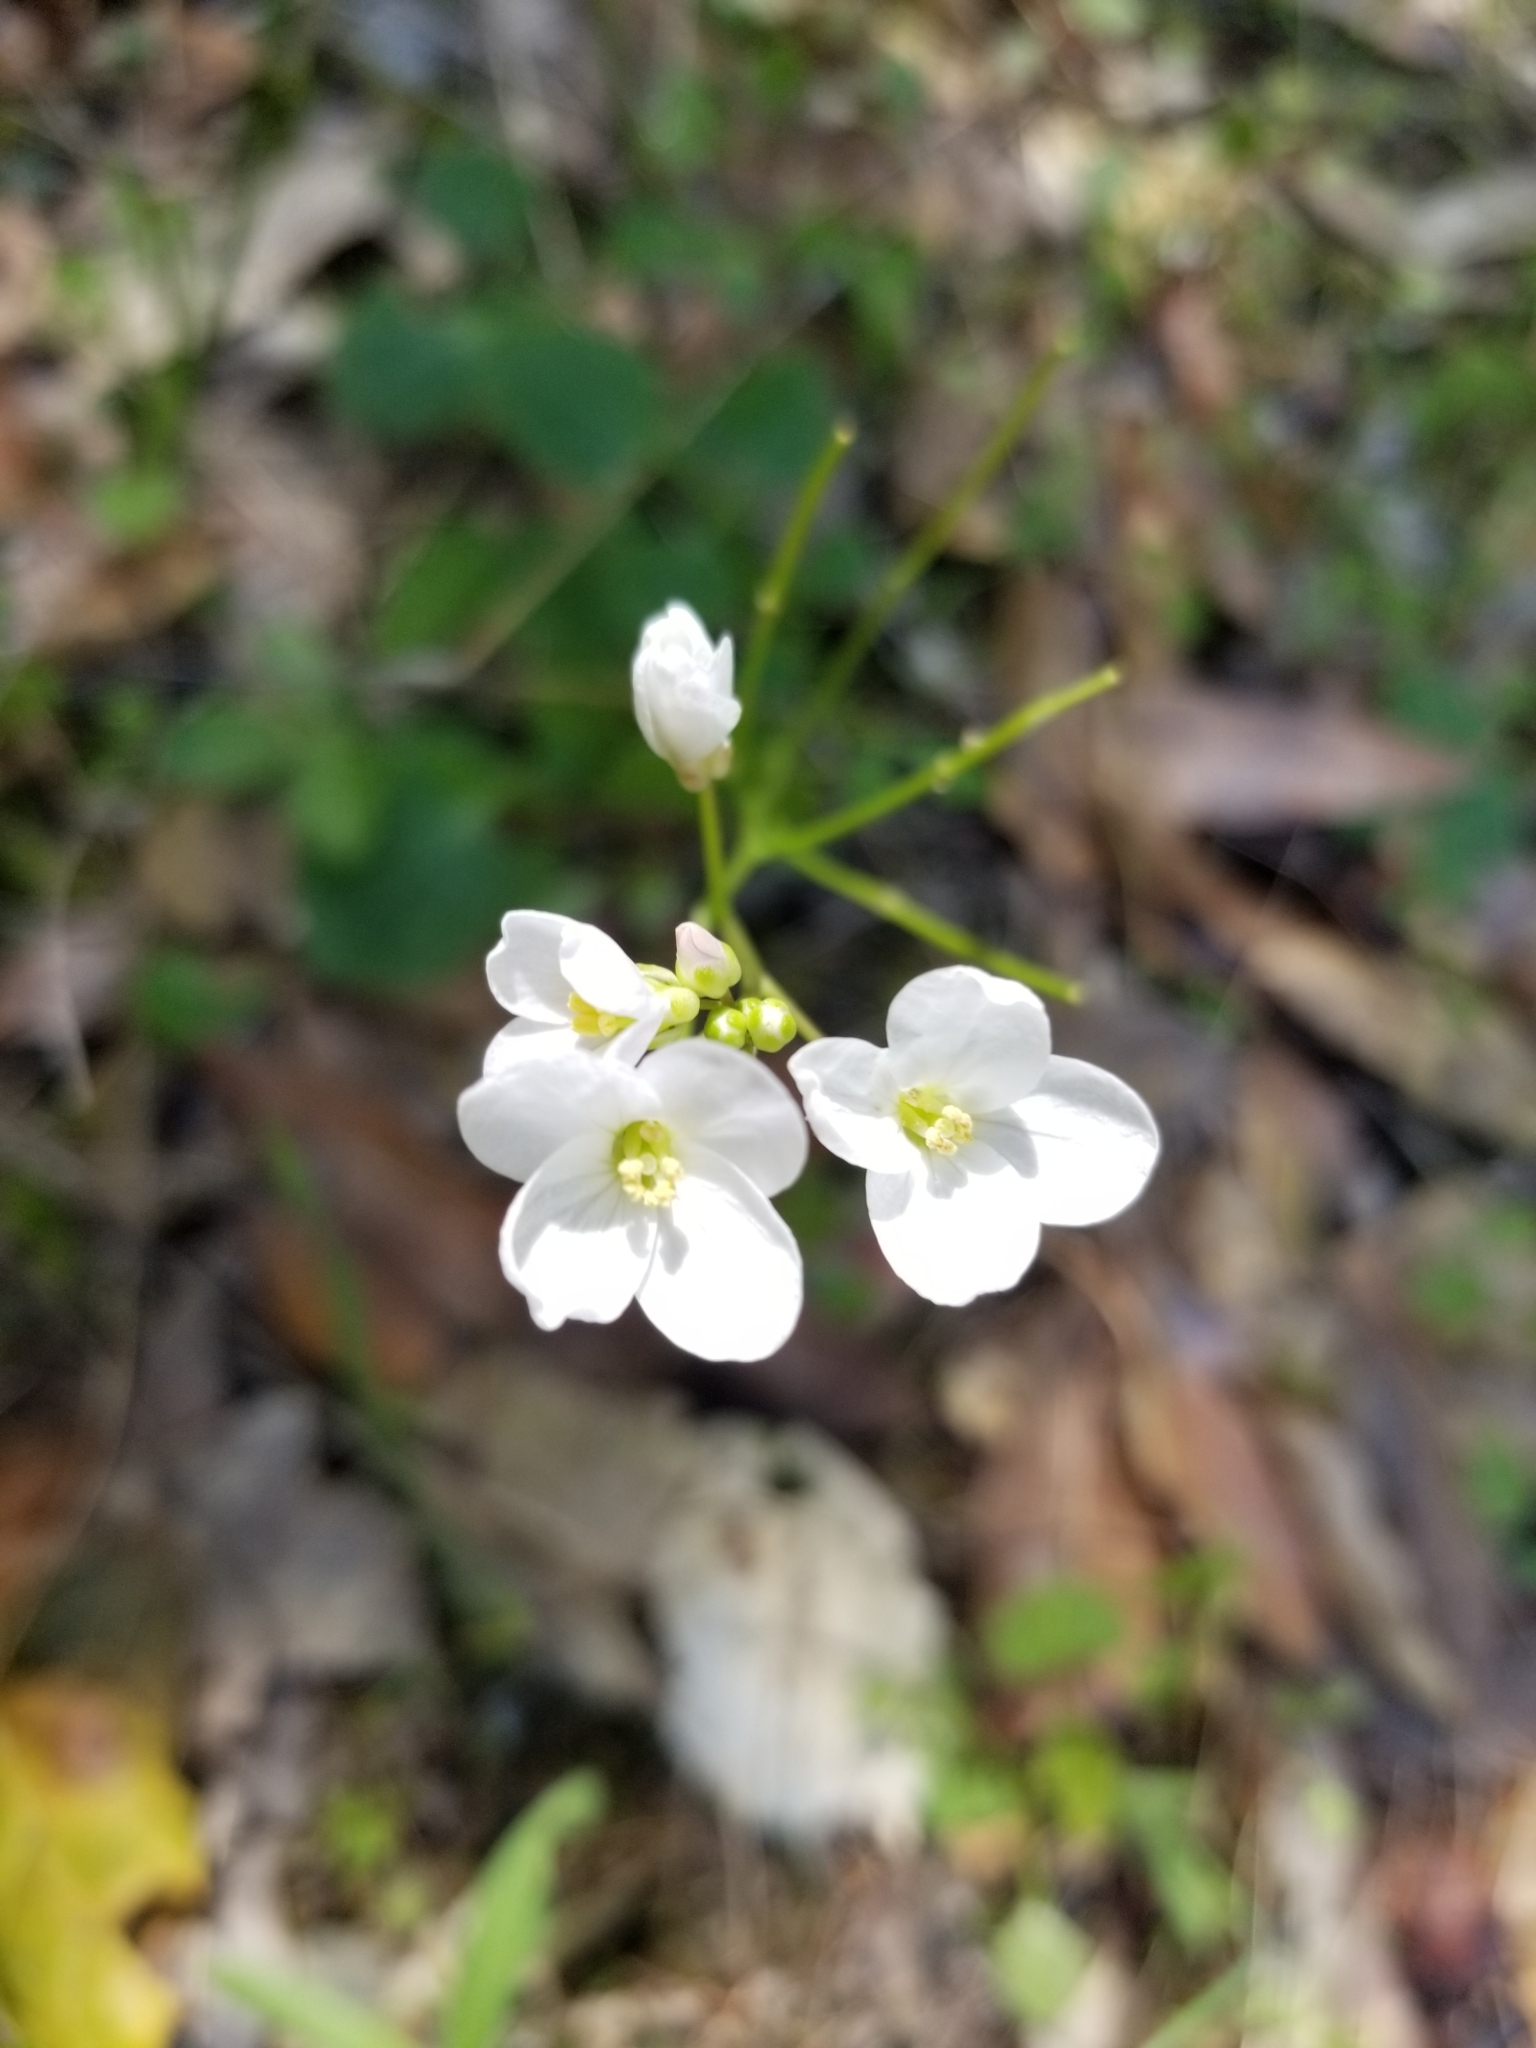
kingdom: Plantae
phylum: Tracheophyta
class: Magnoliopsida
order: Brassicales
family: Brassicaceae
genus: Cardamine
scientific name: Cardamine californica
